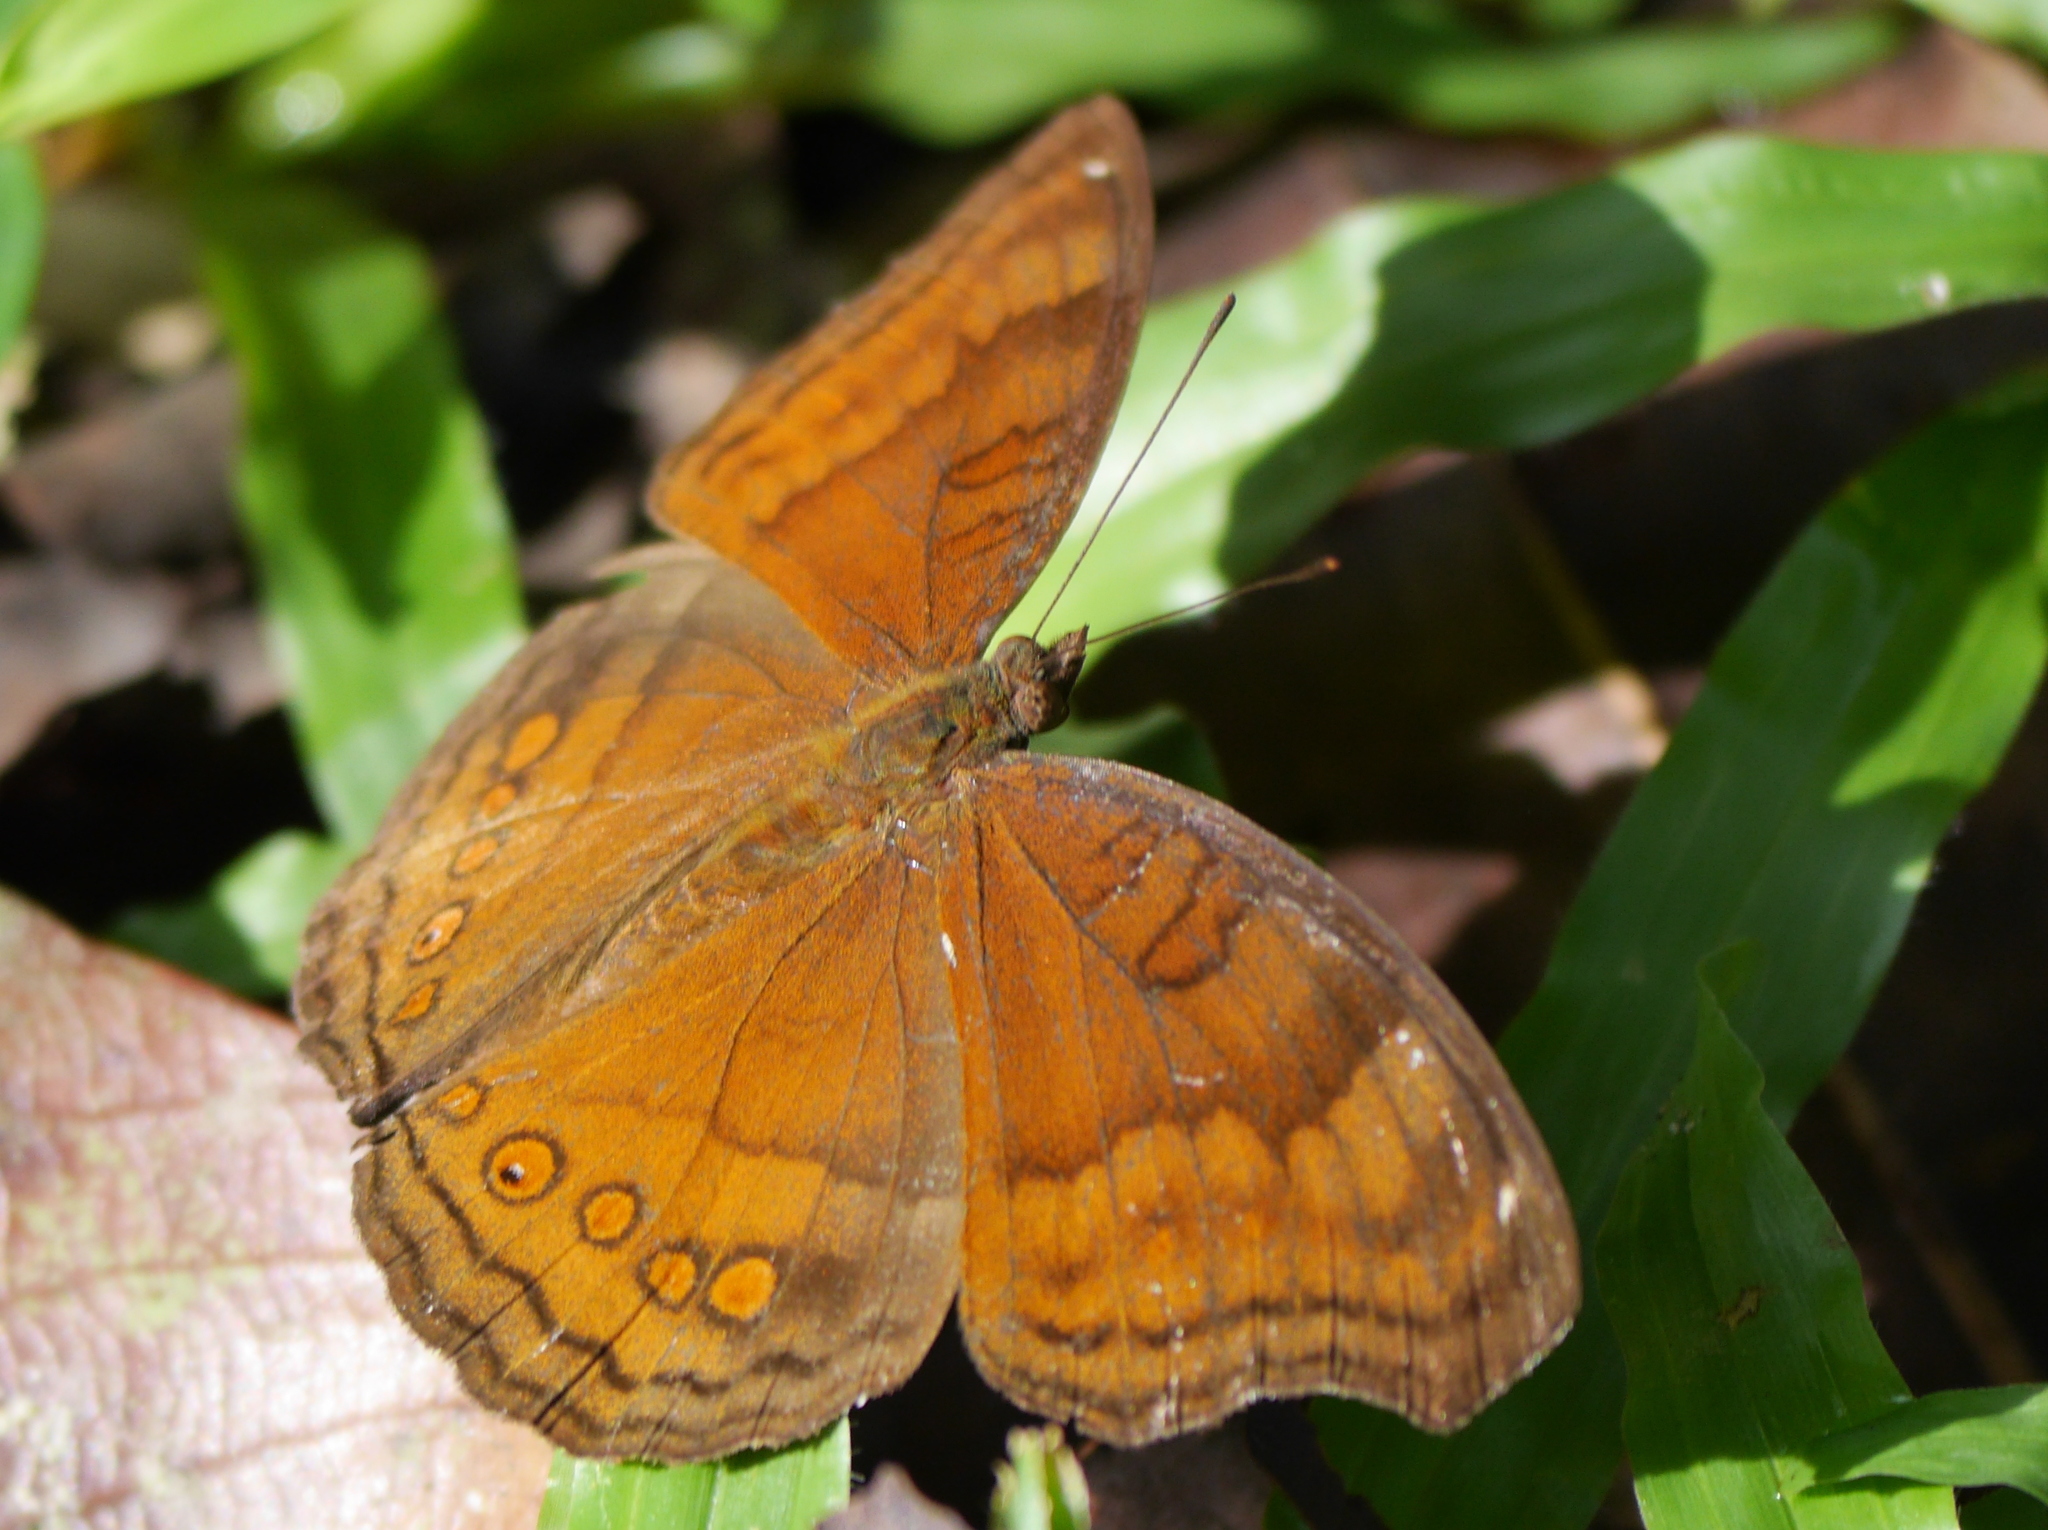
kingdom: Animalia
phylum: Arthropoda
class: Insecta
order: Lepidoptera
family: Nymphalidae
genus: Junonia
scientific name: Junonia hedonia
